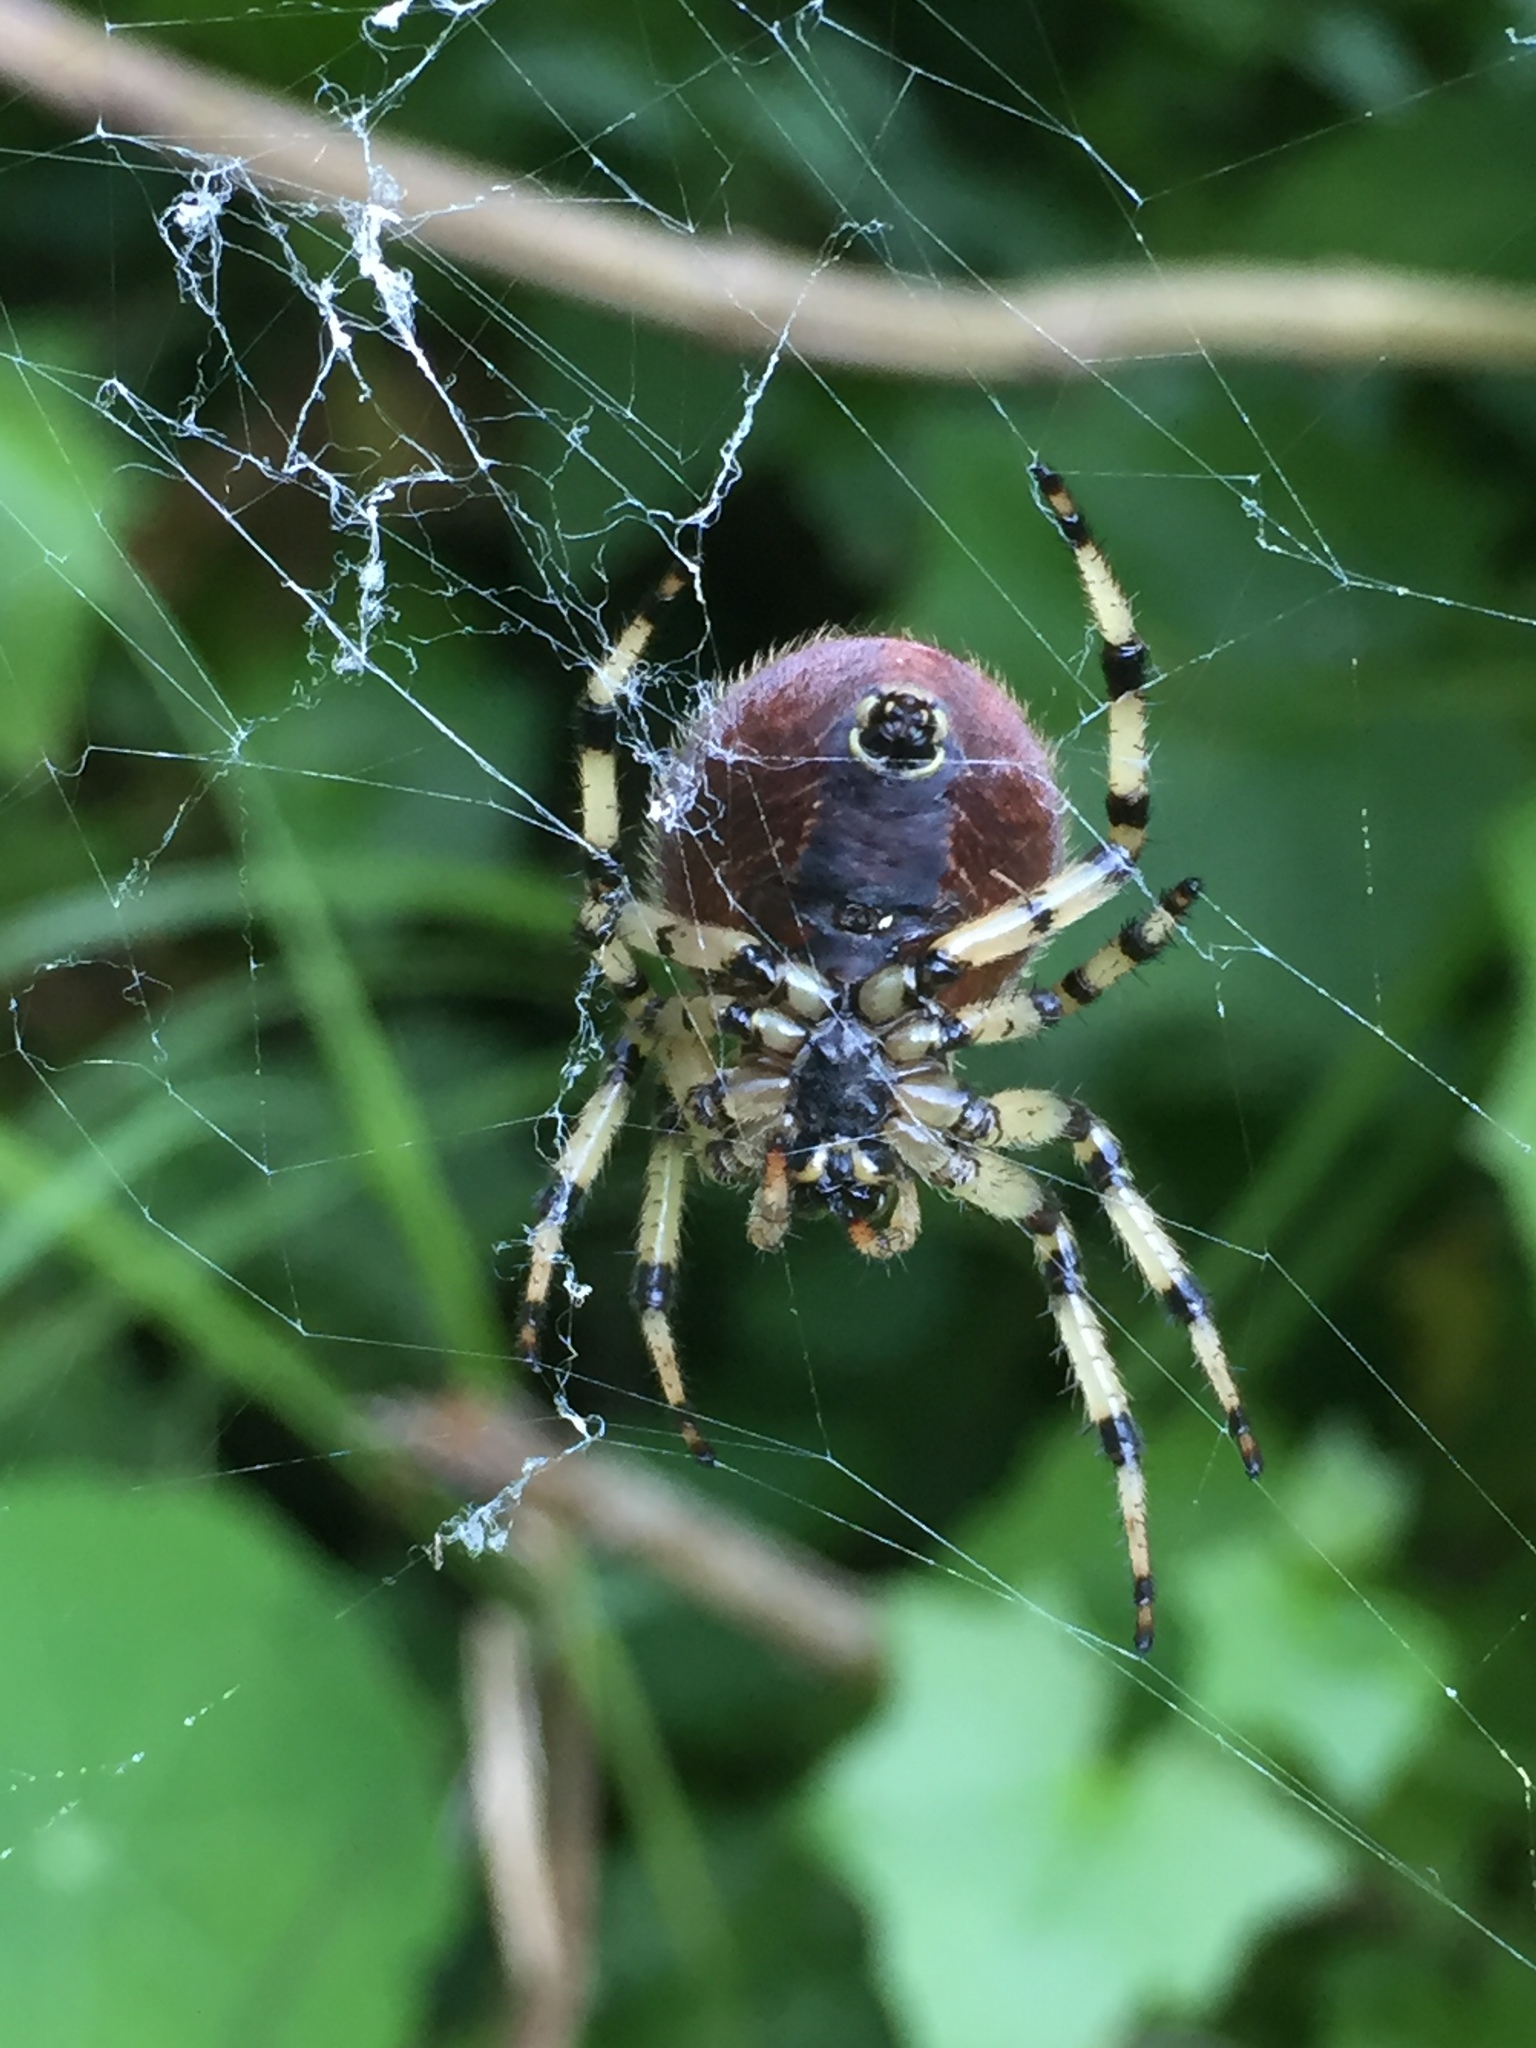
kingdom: Animalia
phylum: Arthropoda
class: Arachnida
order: Araneae
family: Araneidae
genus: Araneus
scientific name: Araneus trifolium
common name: Shamrock orbweaver
